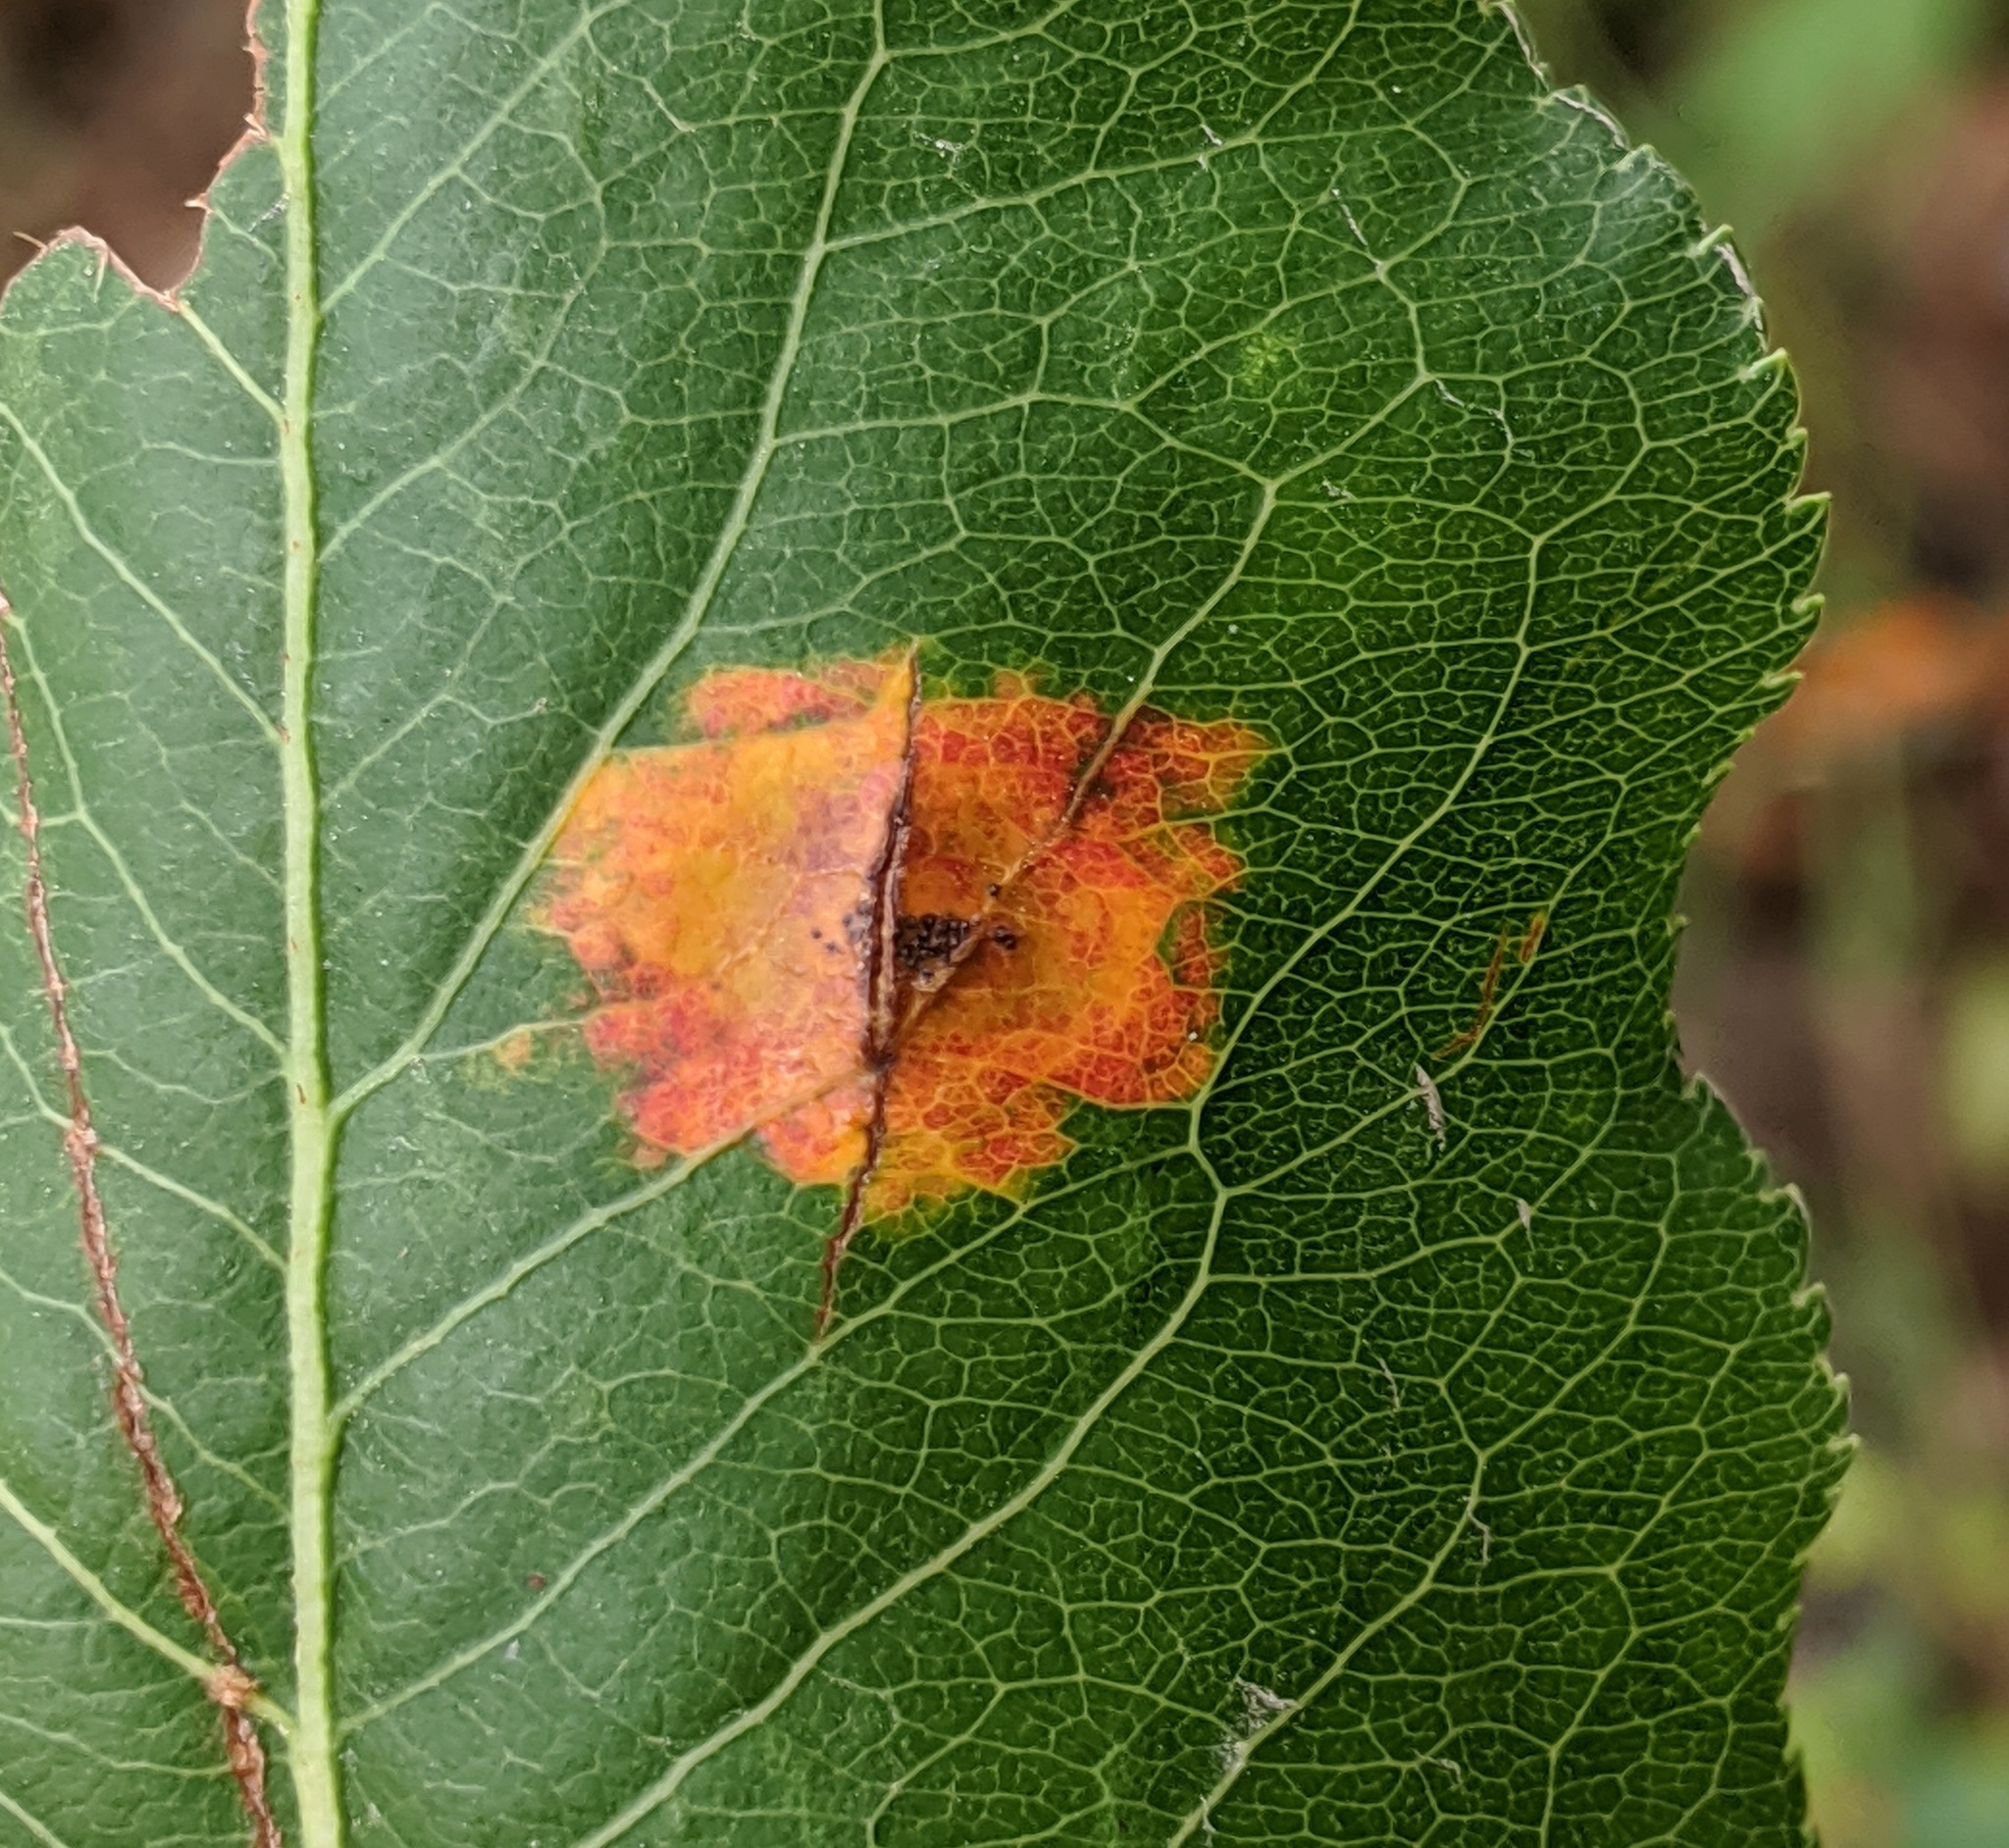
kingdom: Fungi
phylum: Basidiomycota
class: Pucciniomycetes
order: Pucciniales
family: Gymnosporangiaceae
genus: Gymnosporangium
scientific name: Gymnosporangium sabinae
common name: Pear trellis rust fungus
